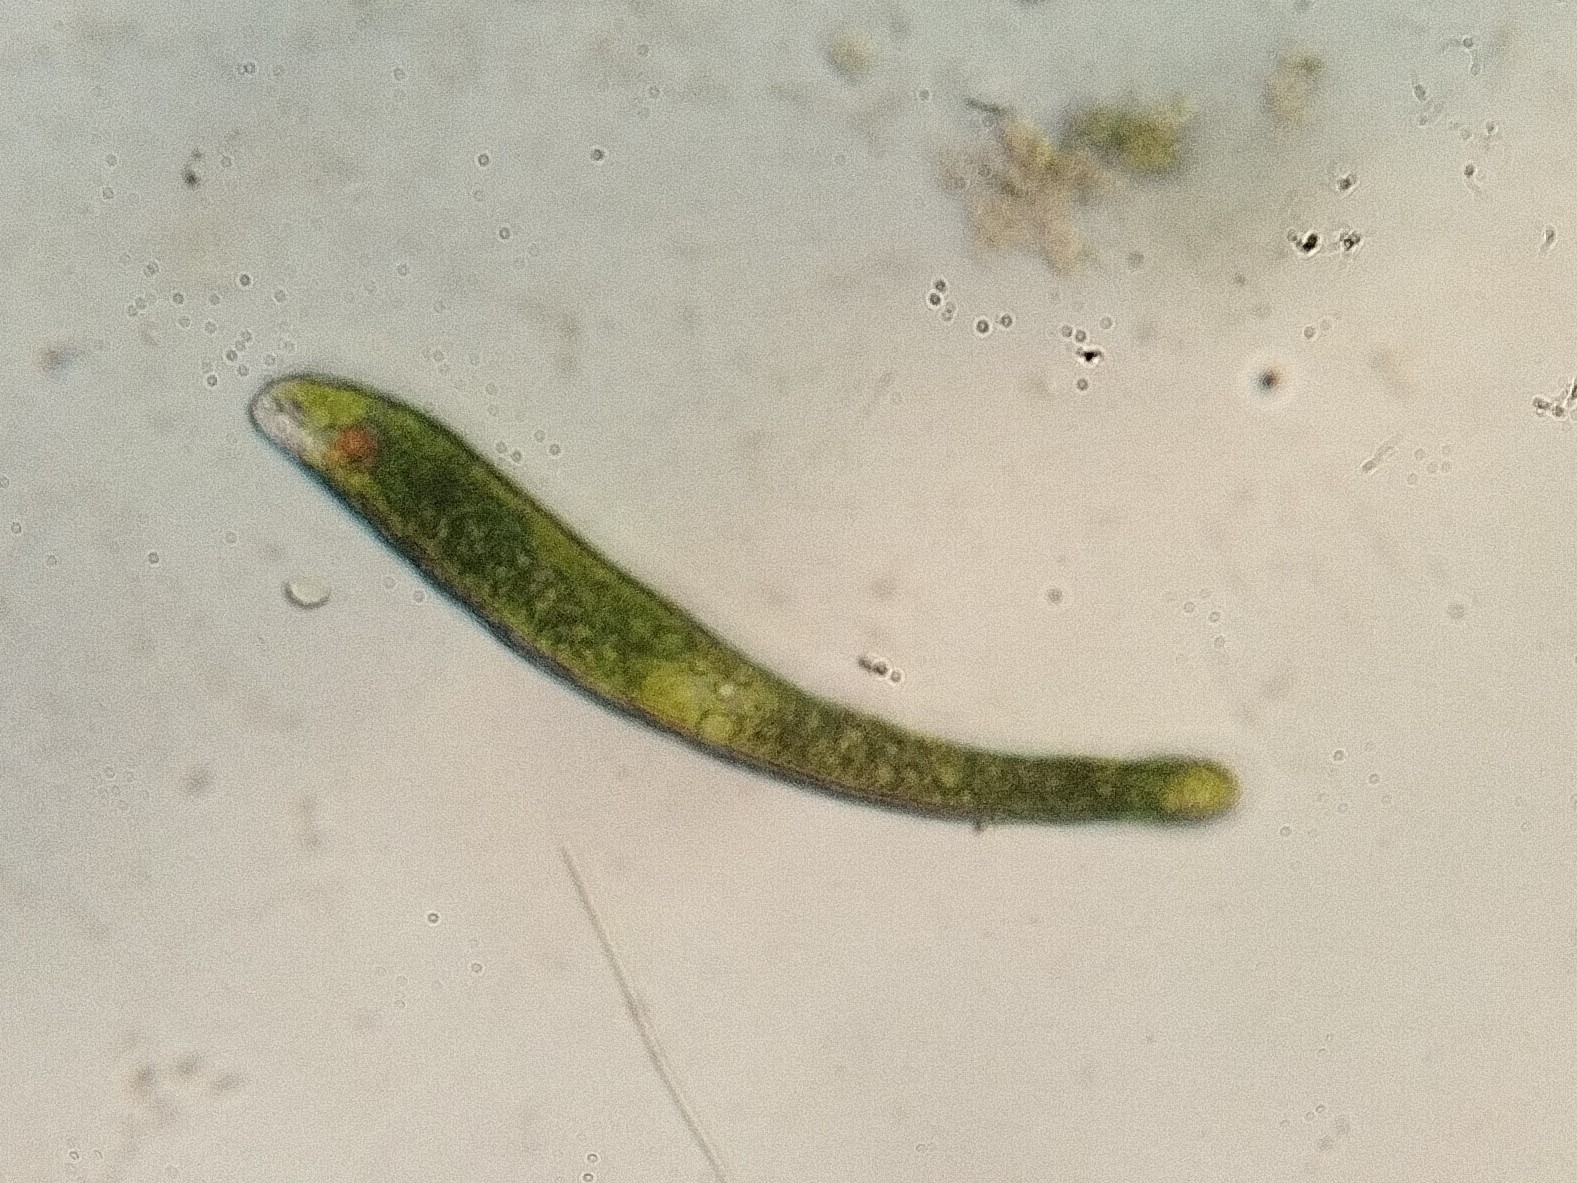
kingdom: Protozoa
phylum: Euglenozoa
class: Euglenoidea
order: Euglenida
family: Euglenaceae
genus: Euglena
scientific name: Euglena ehrenbergii
